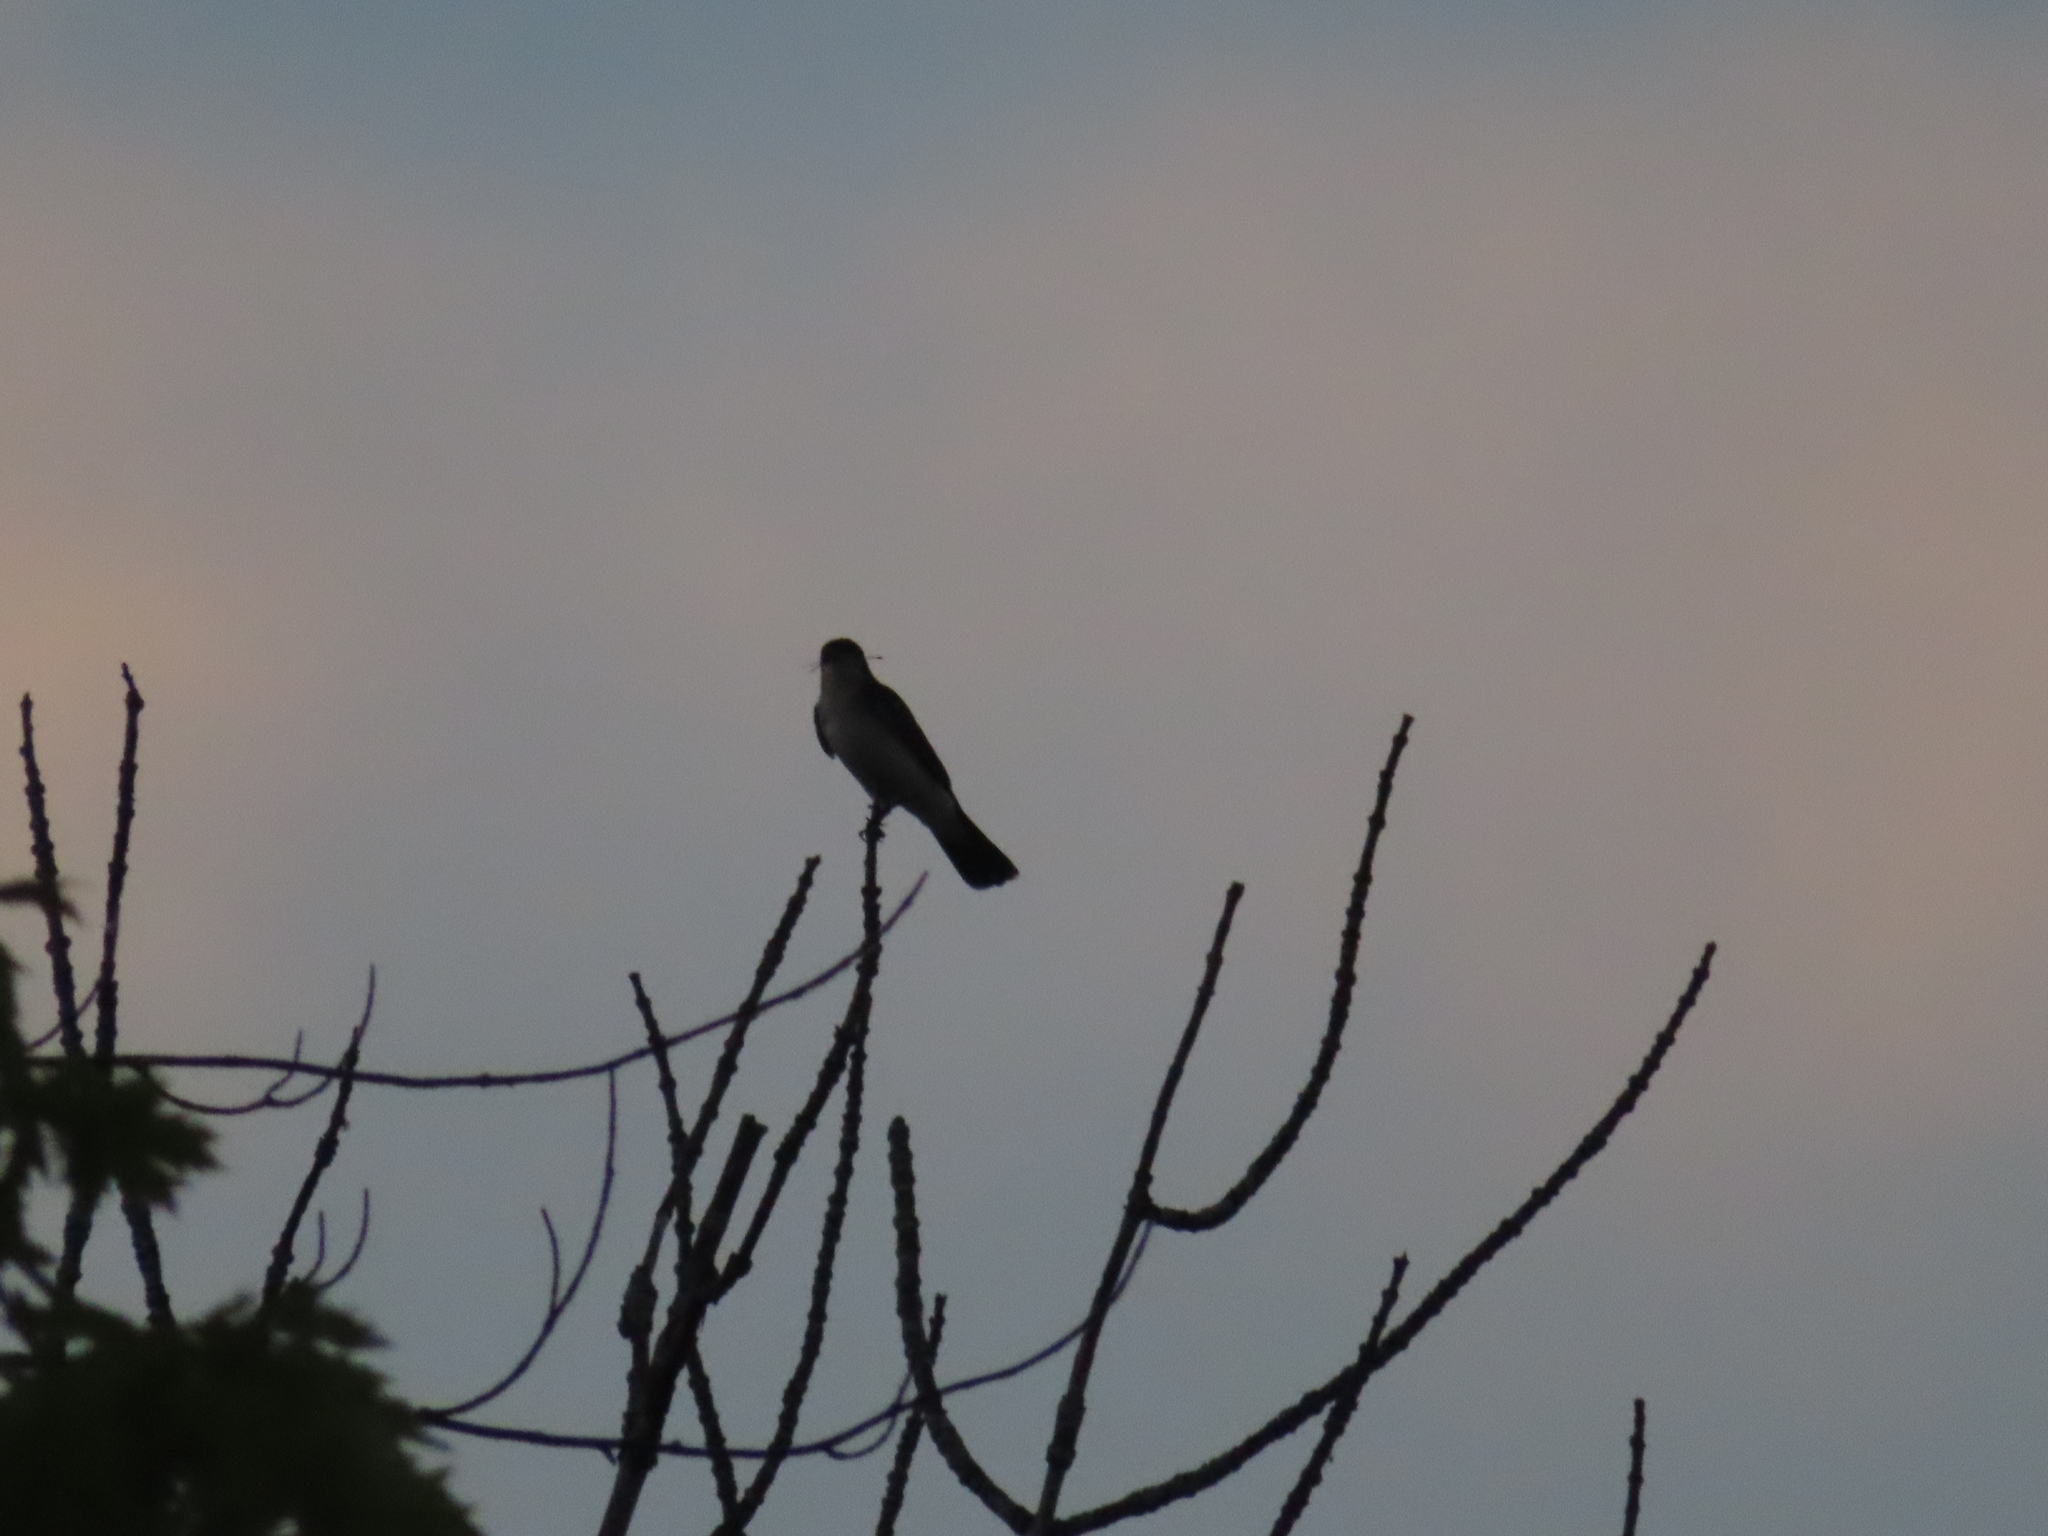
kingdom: Animalia
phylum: Chordata
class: Aves
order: Passeriformes
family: Tyrannidae
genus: Tyrannus
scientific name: Tyrannus tyrannus
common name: Eastern kingbird
